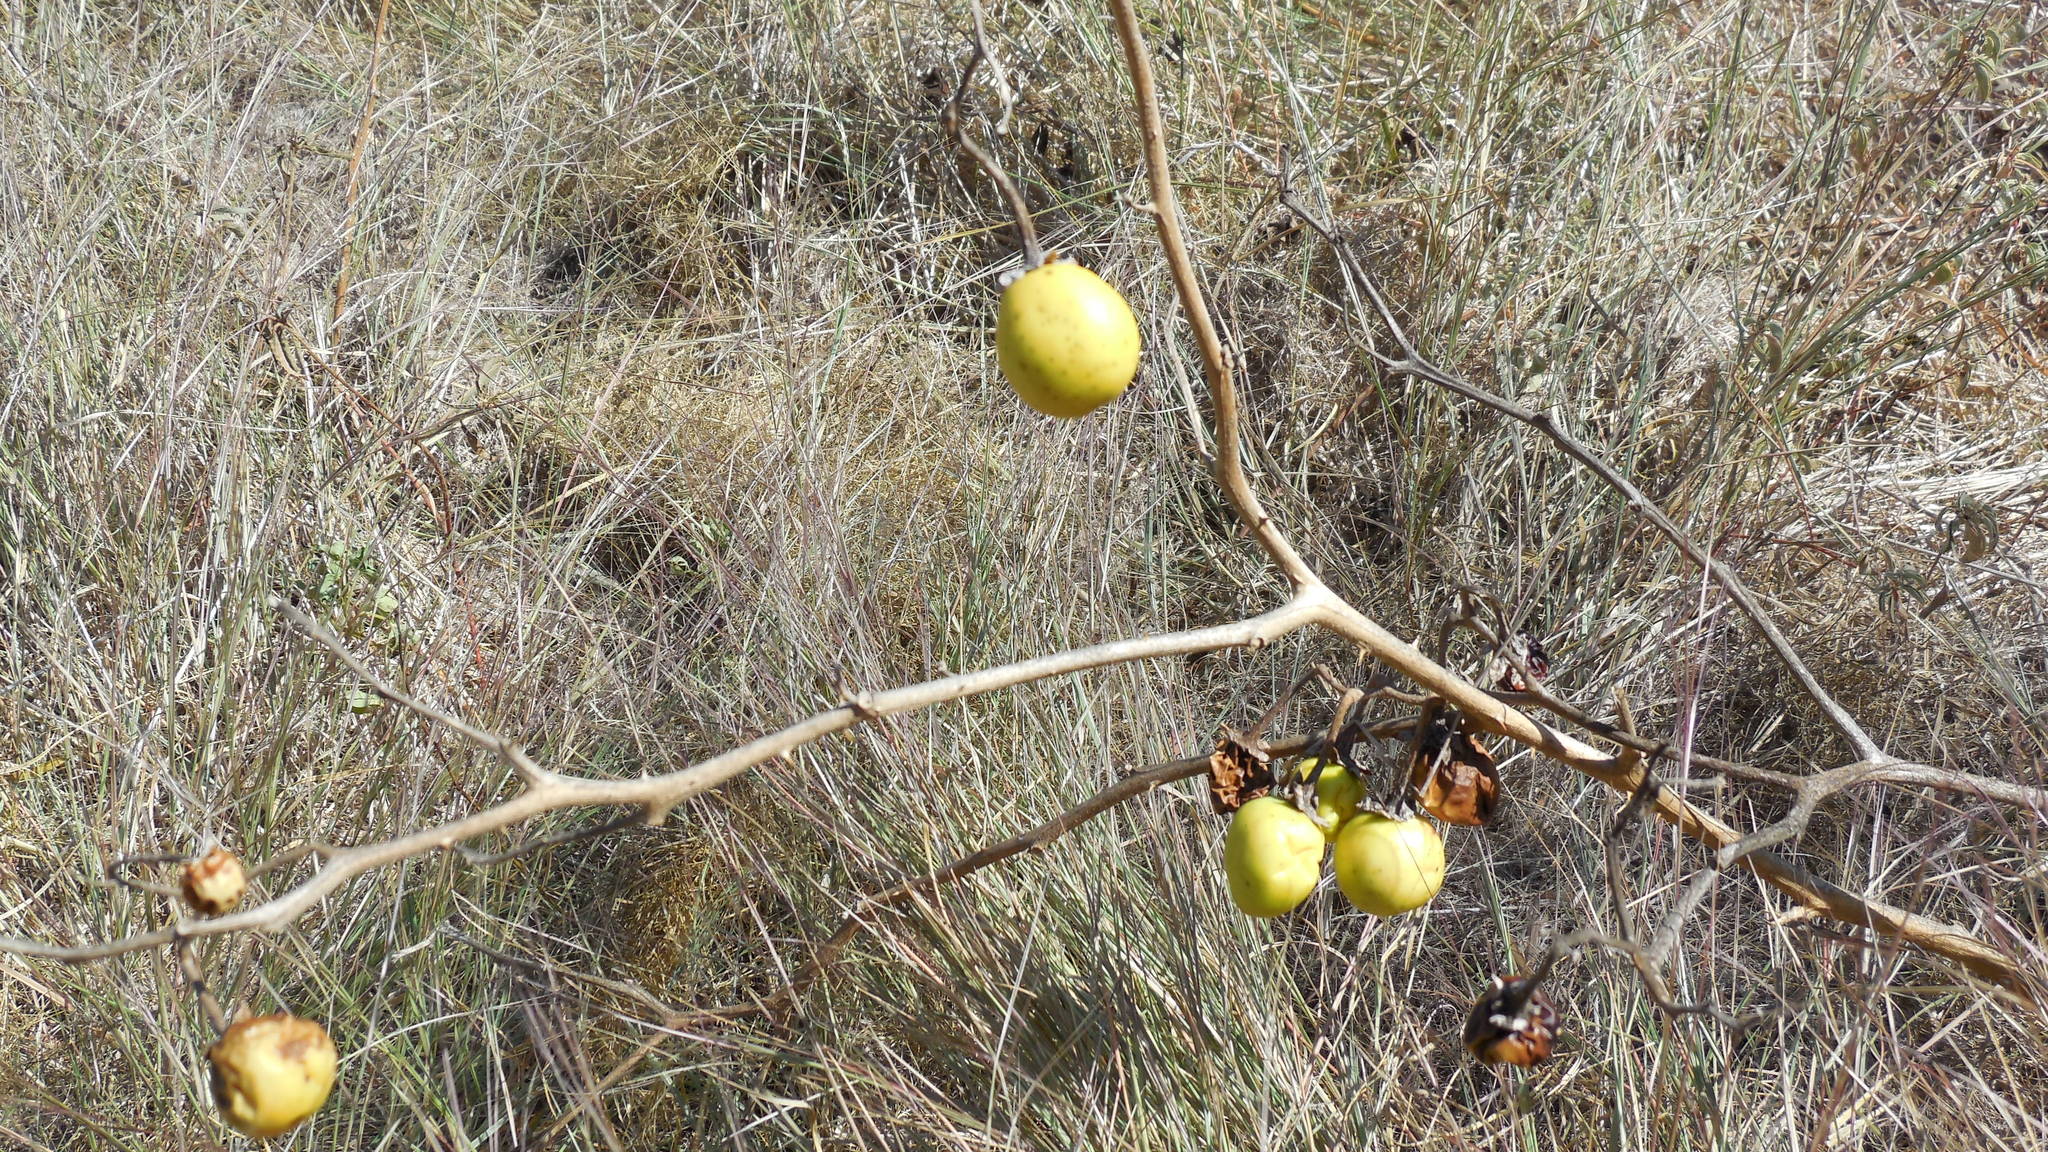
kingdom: Plantae
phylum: Tracheophyta
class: Magnoliopsida
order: Solanales
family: Solanaceae
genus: Solanum
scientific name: Solanum dimidiatum
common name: Carolina horse-nettle
